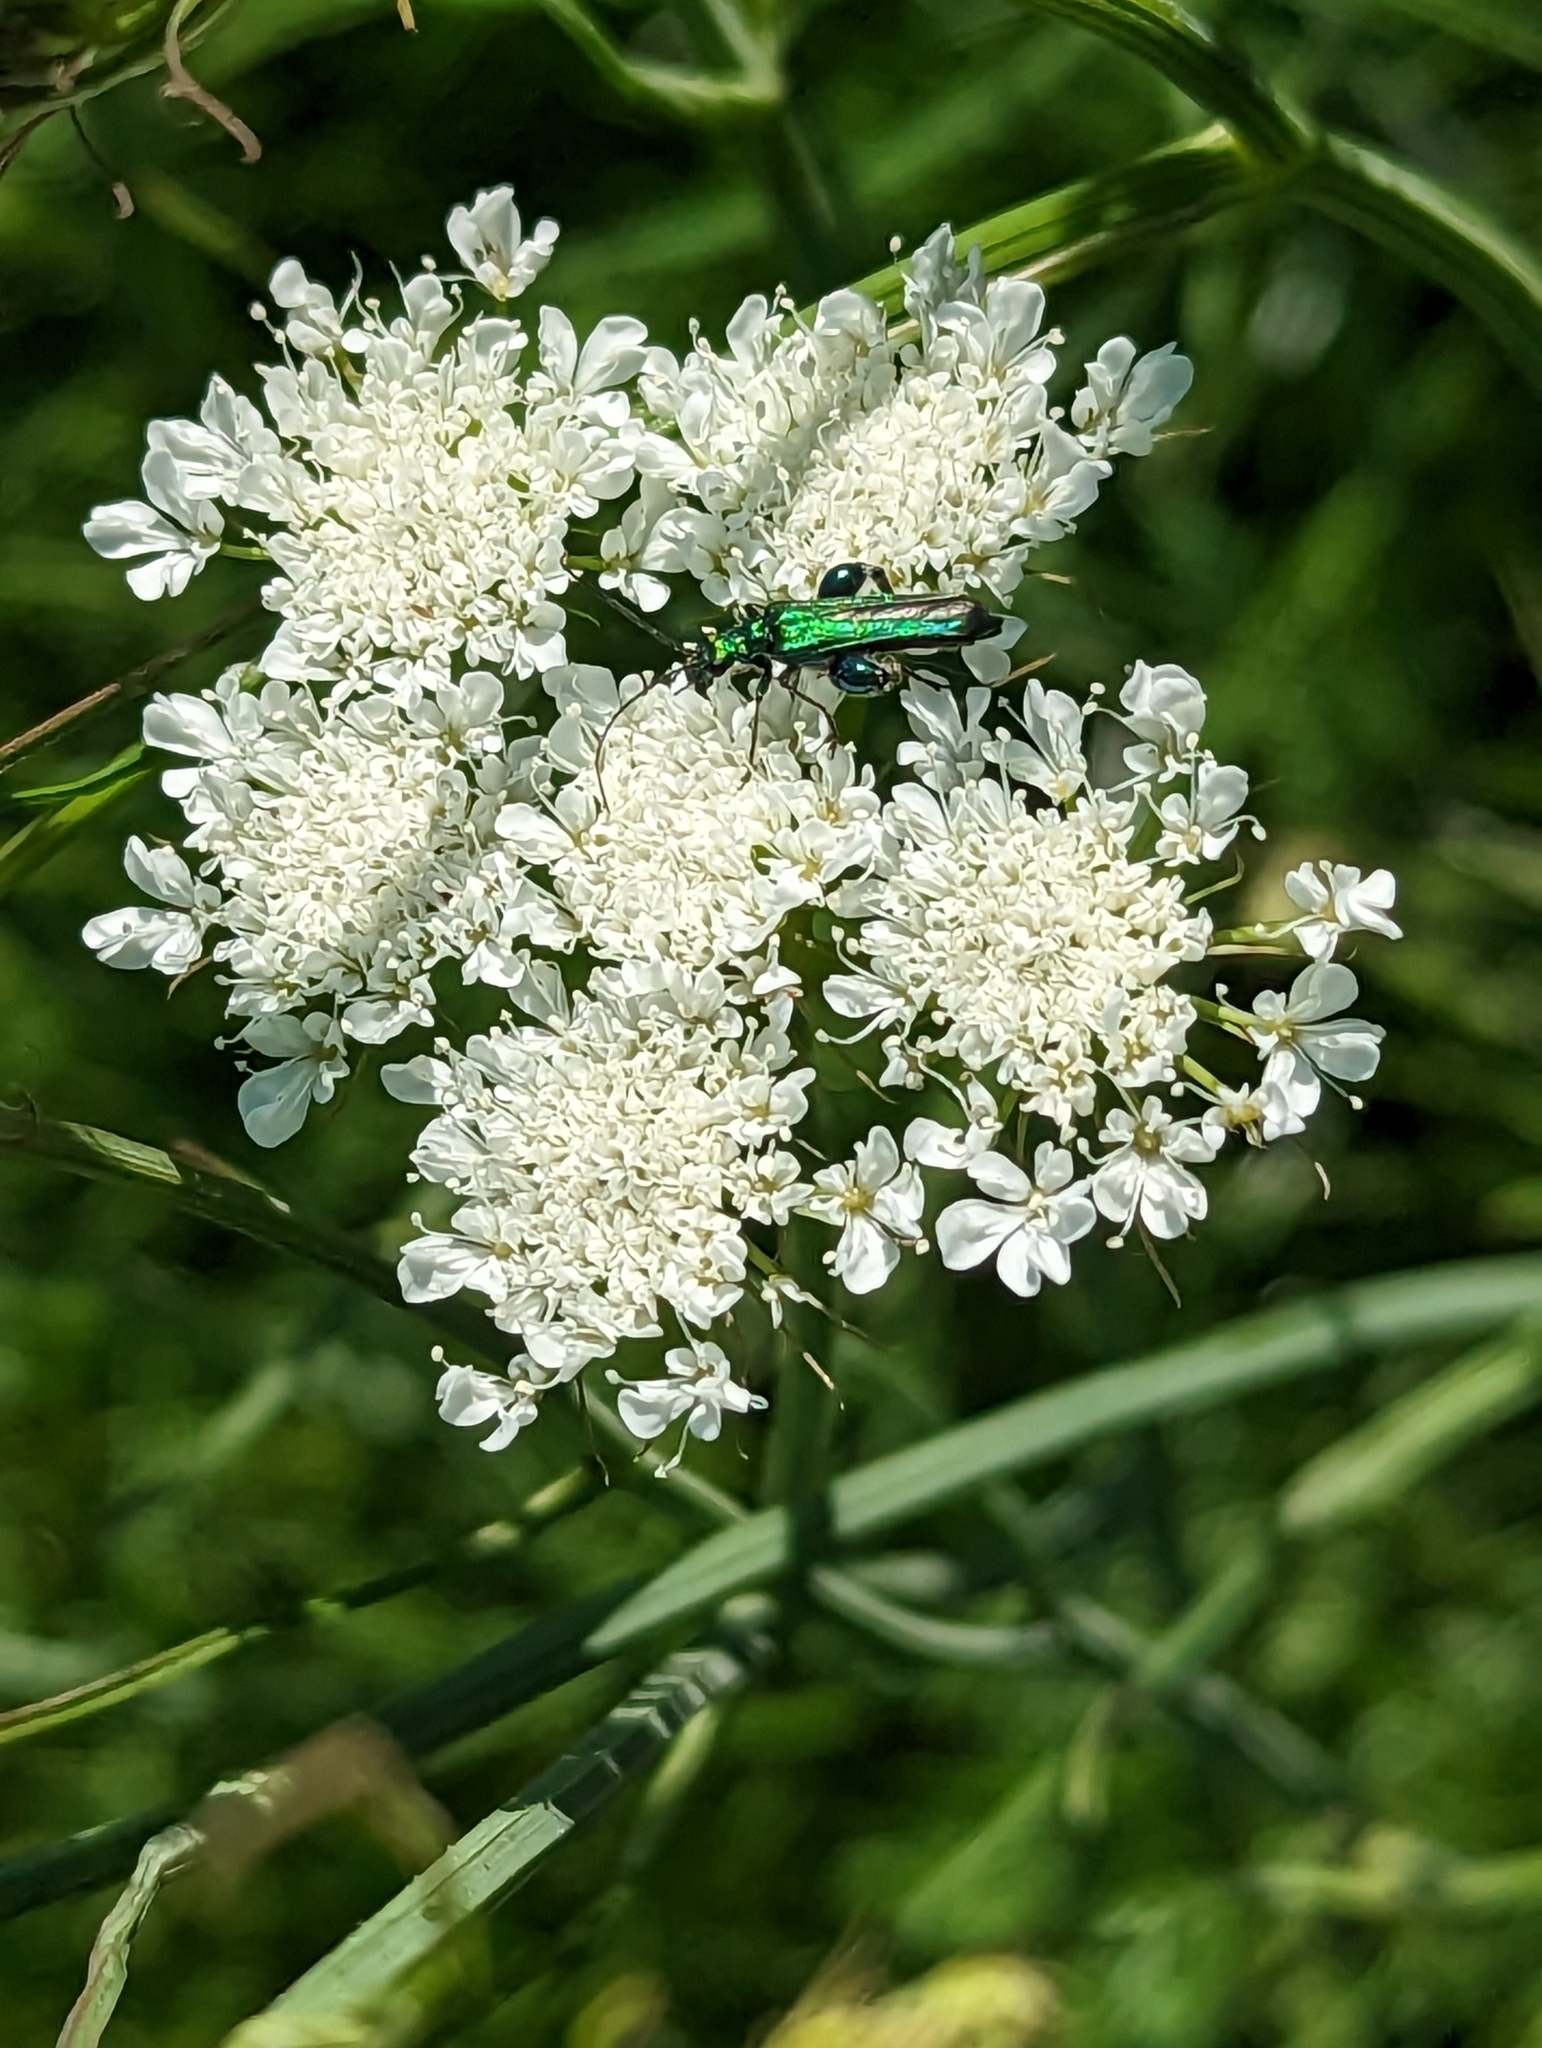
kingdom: Animalia
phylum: Arthropoda
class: Insecta
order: Coleoptera
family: Oedemeridae
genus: Oedemera
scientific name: Oedemera nobilis
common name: Swollen-thighed beetle
